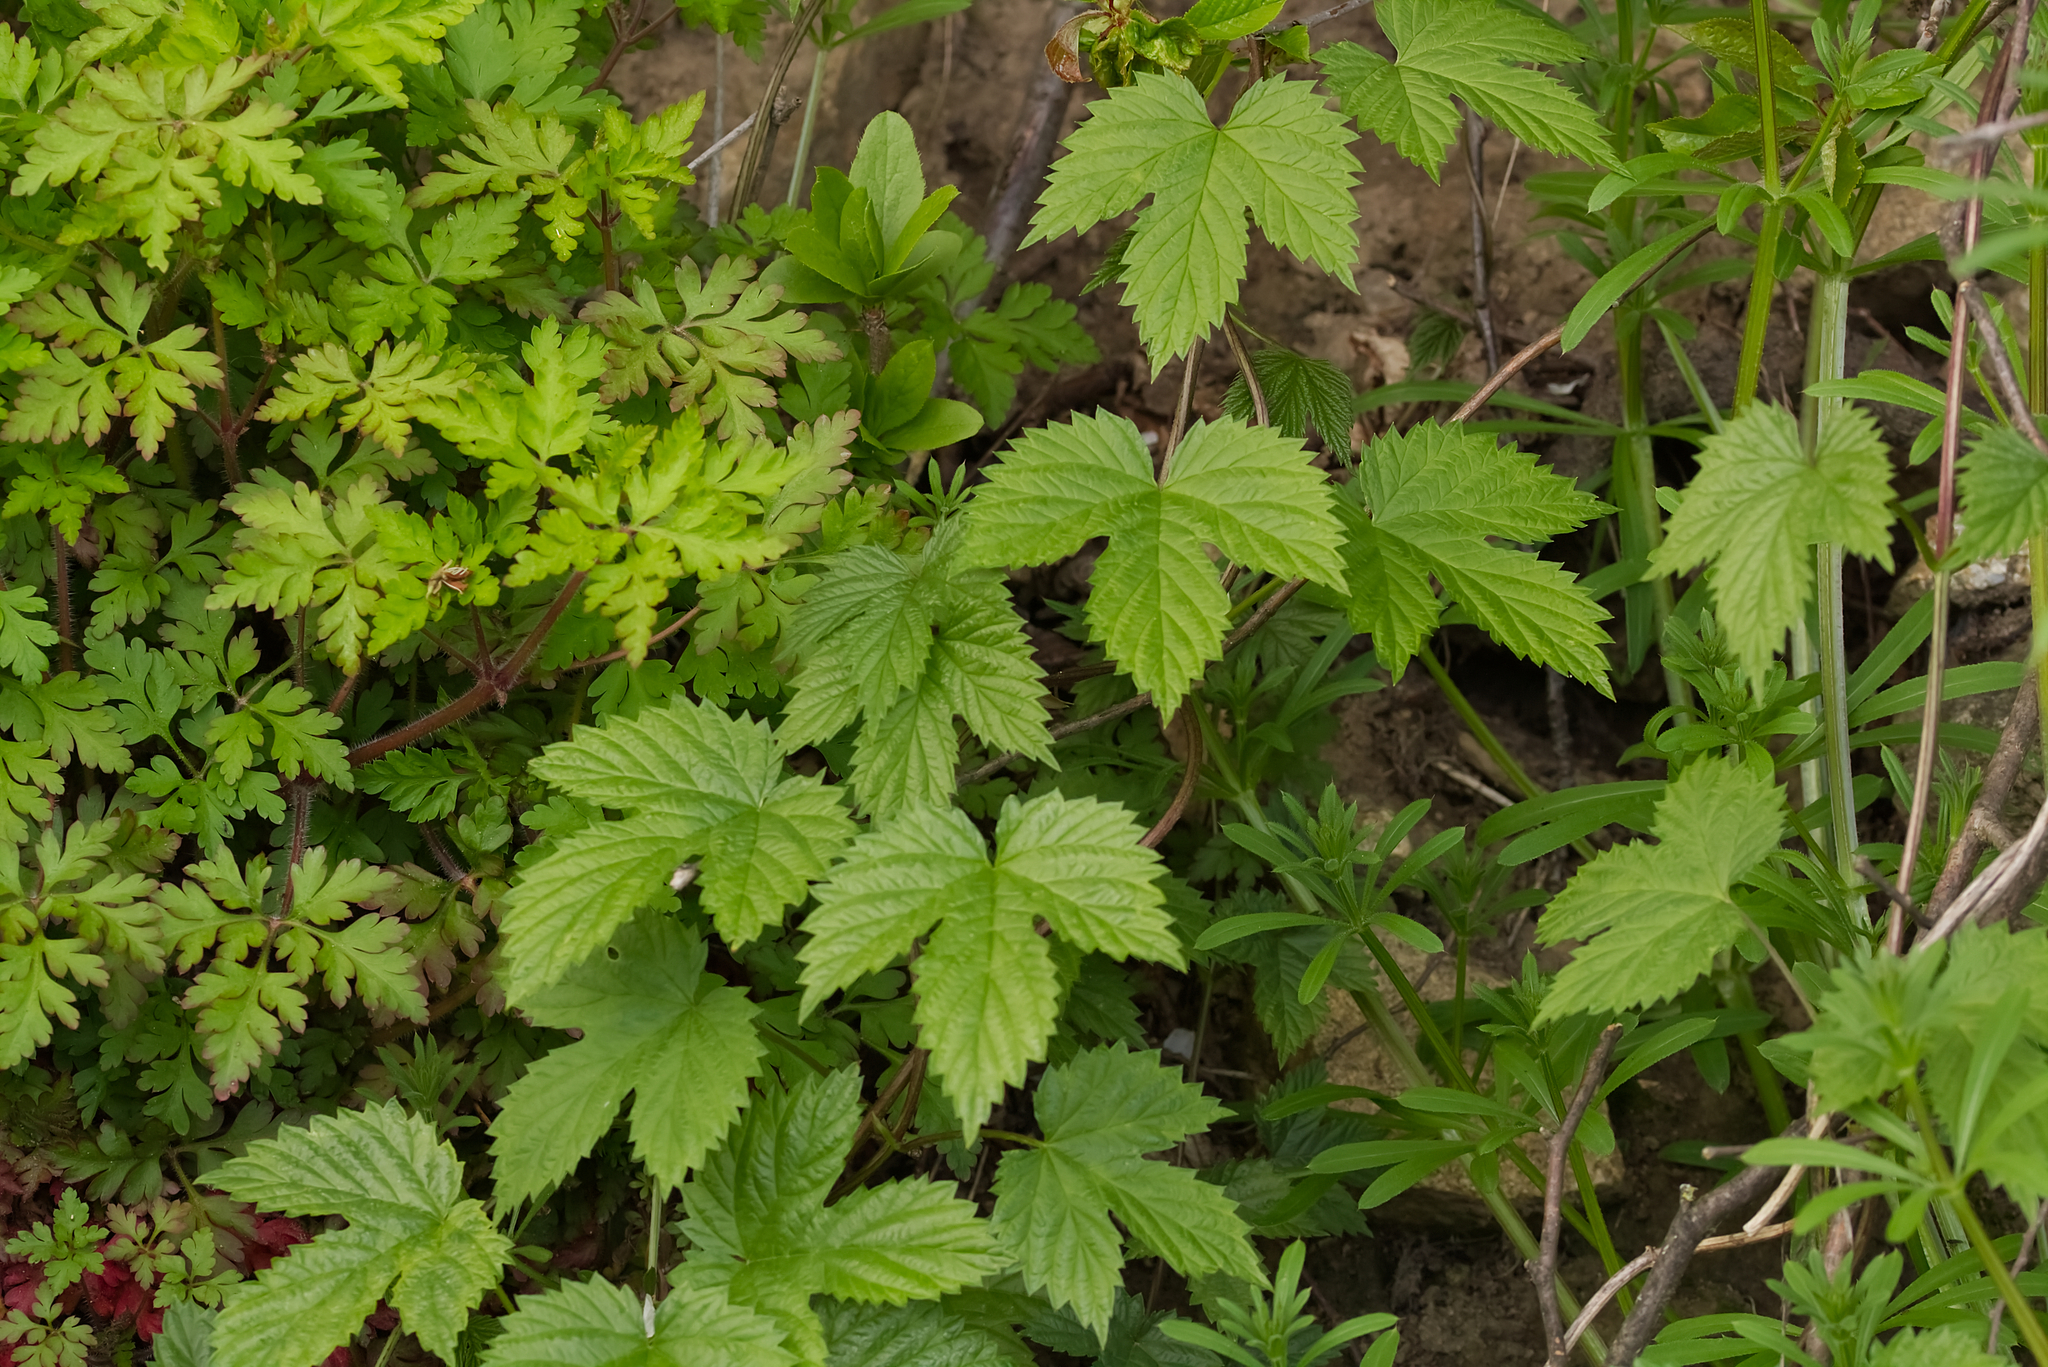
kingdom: Plantae
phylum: Tracheophyta
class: Magnoliopsida
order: Rosales
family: Cannabaceae
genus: Humulus
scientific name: Humulus lupulus
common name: Hop
